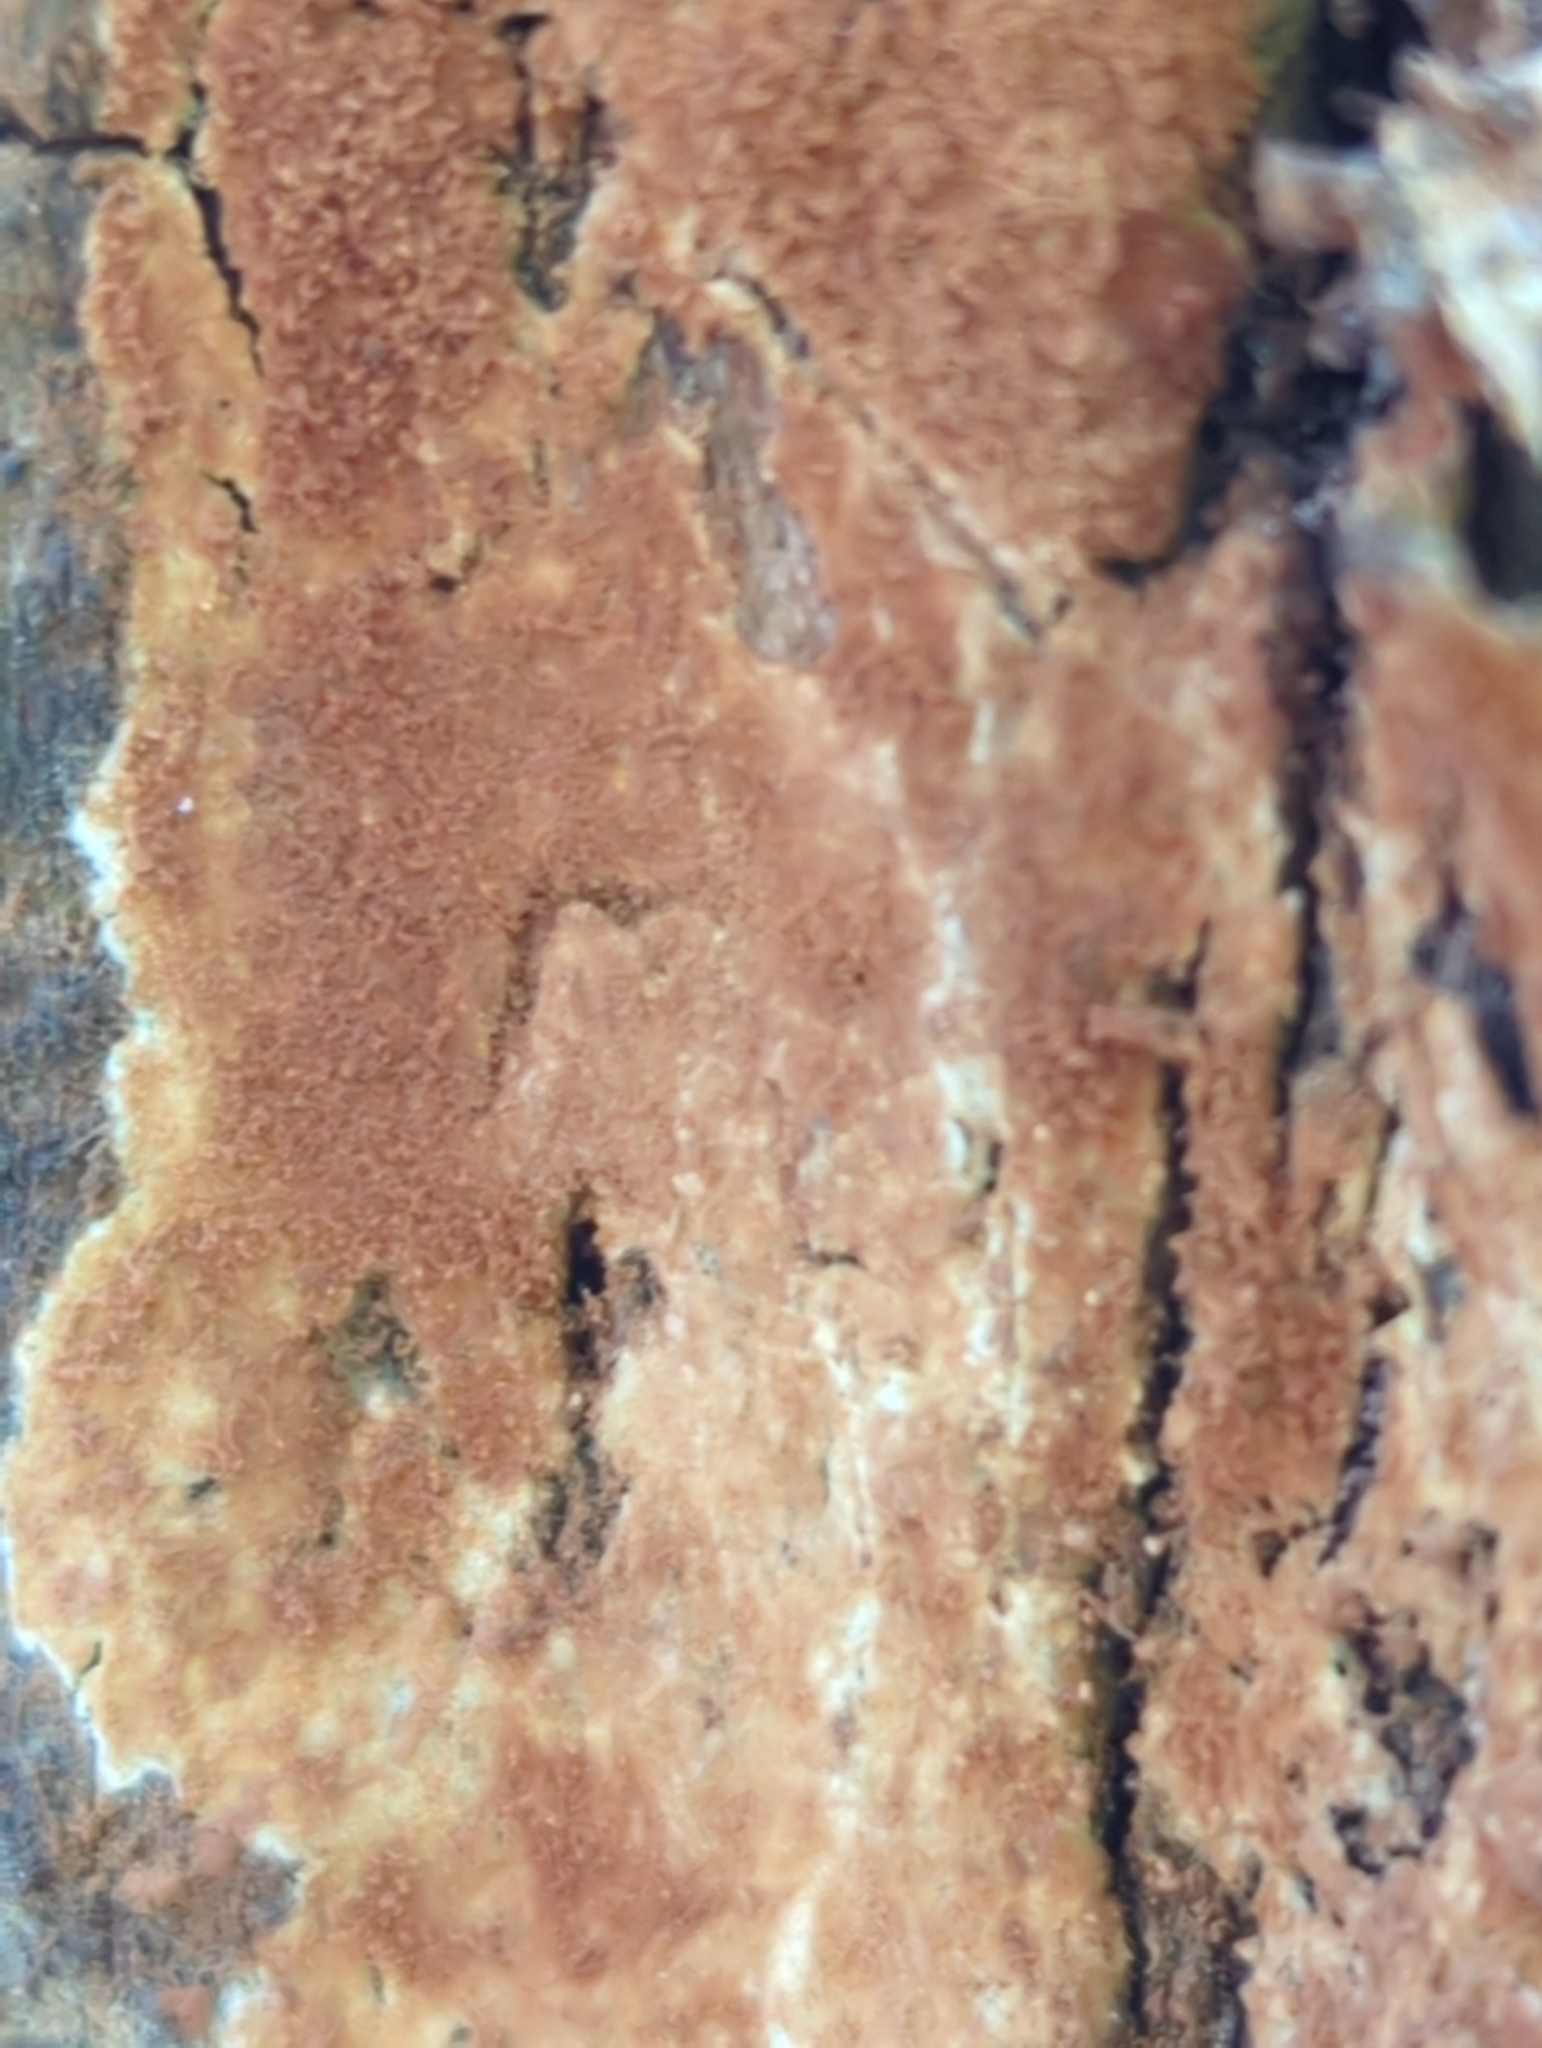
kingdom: Fungi
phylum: Basidiomycota
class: Agaricomycetes
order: Cantharellales
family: Botryobasidiaceae
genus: Botryobasidium
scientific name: Botryobasidium simile
